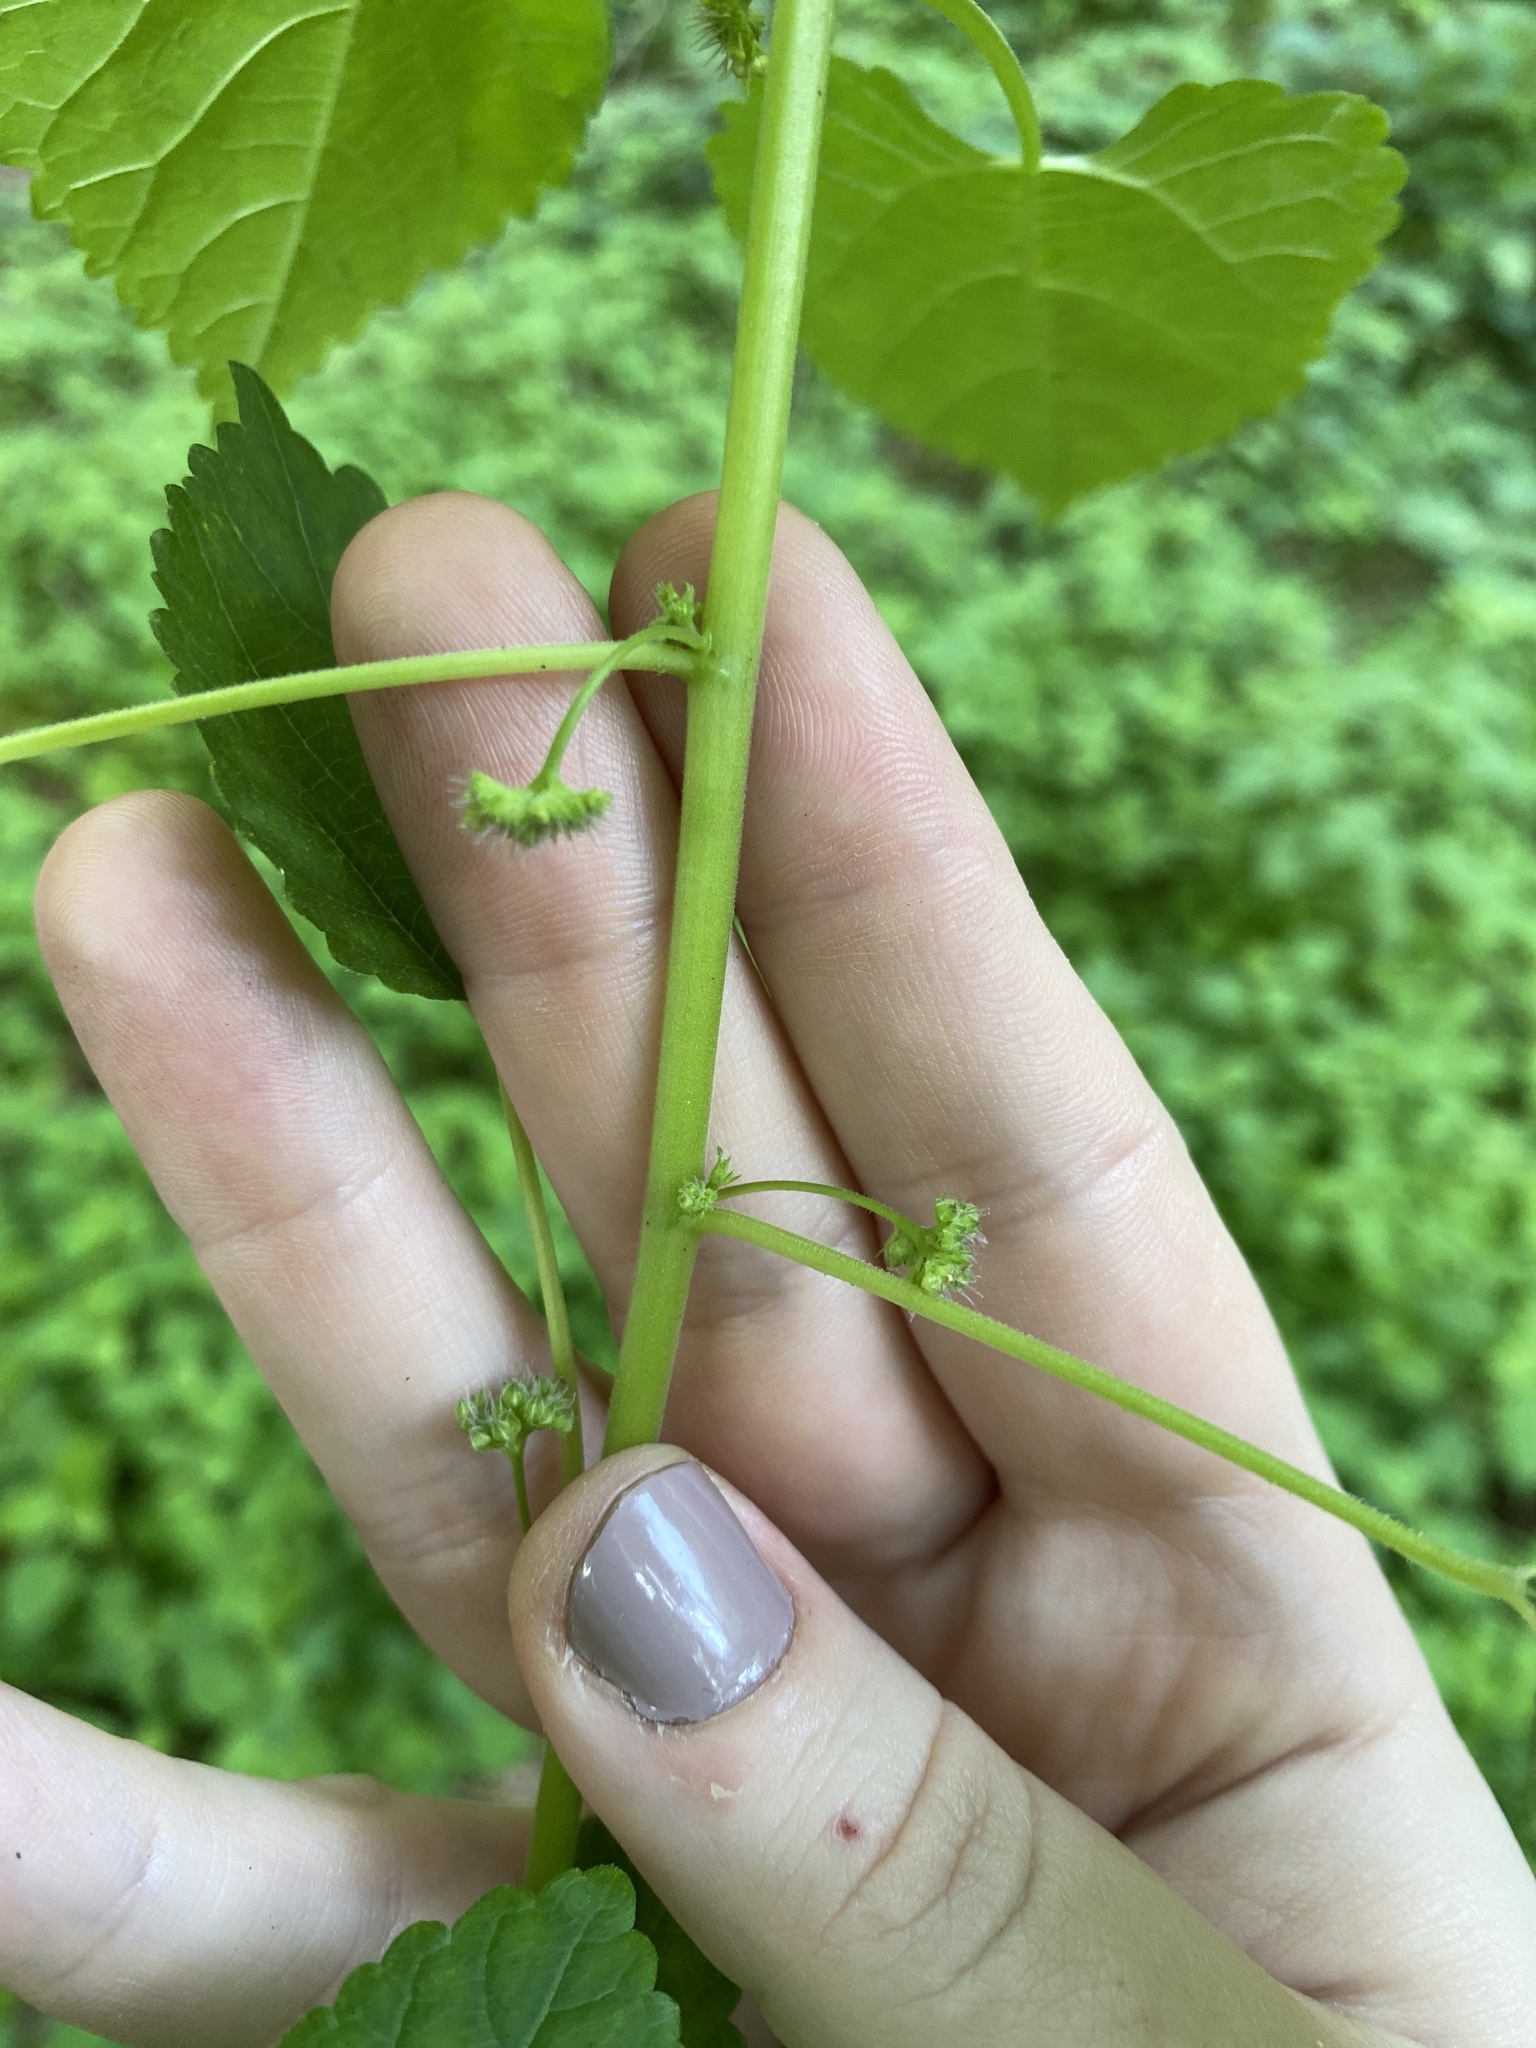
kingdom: Plantae
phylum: Tracheophyta
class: Magnoliopsida
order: Rosales
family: Moraceae
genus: Fatoua
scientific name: Fatoua villosa
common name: Hairy crabweed
